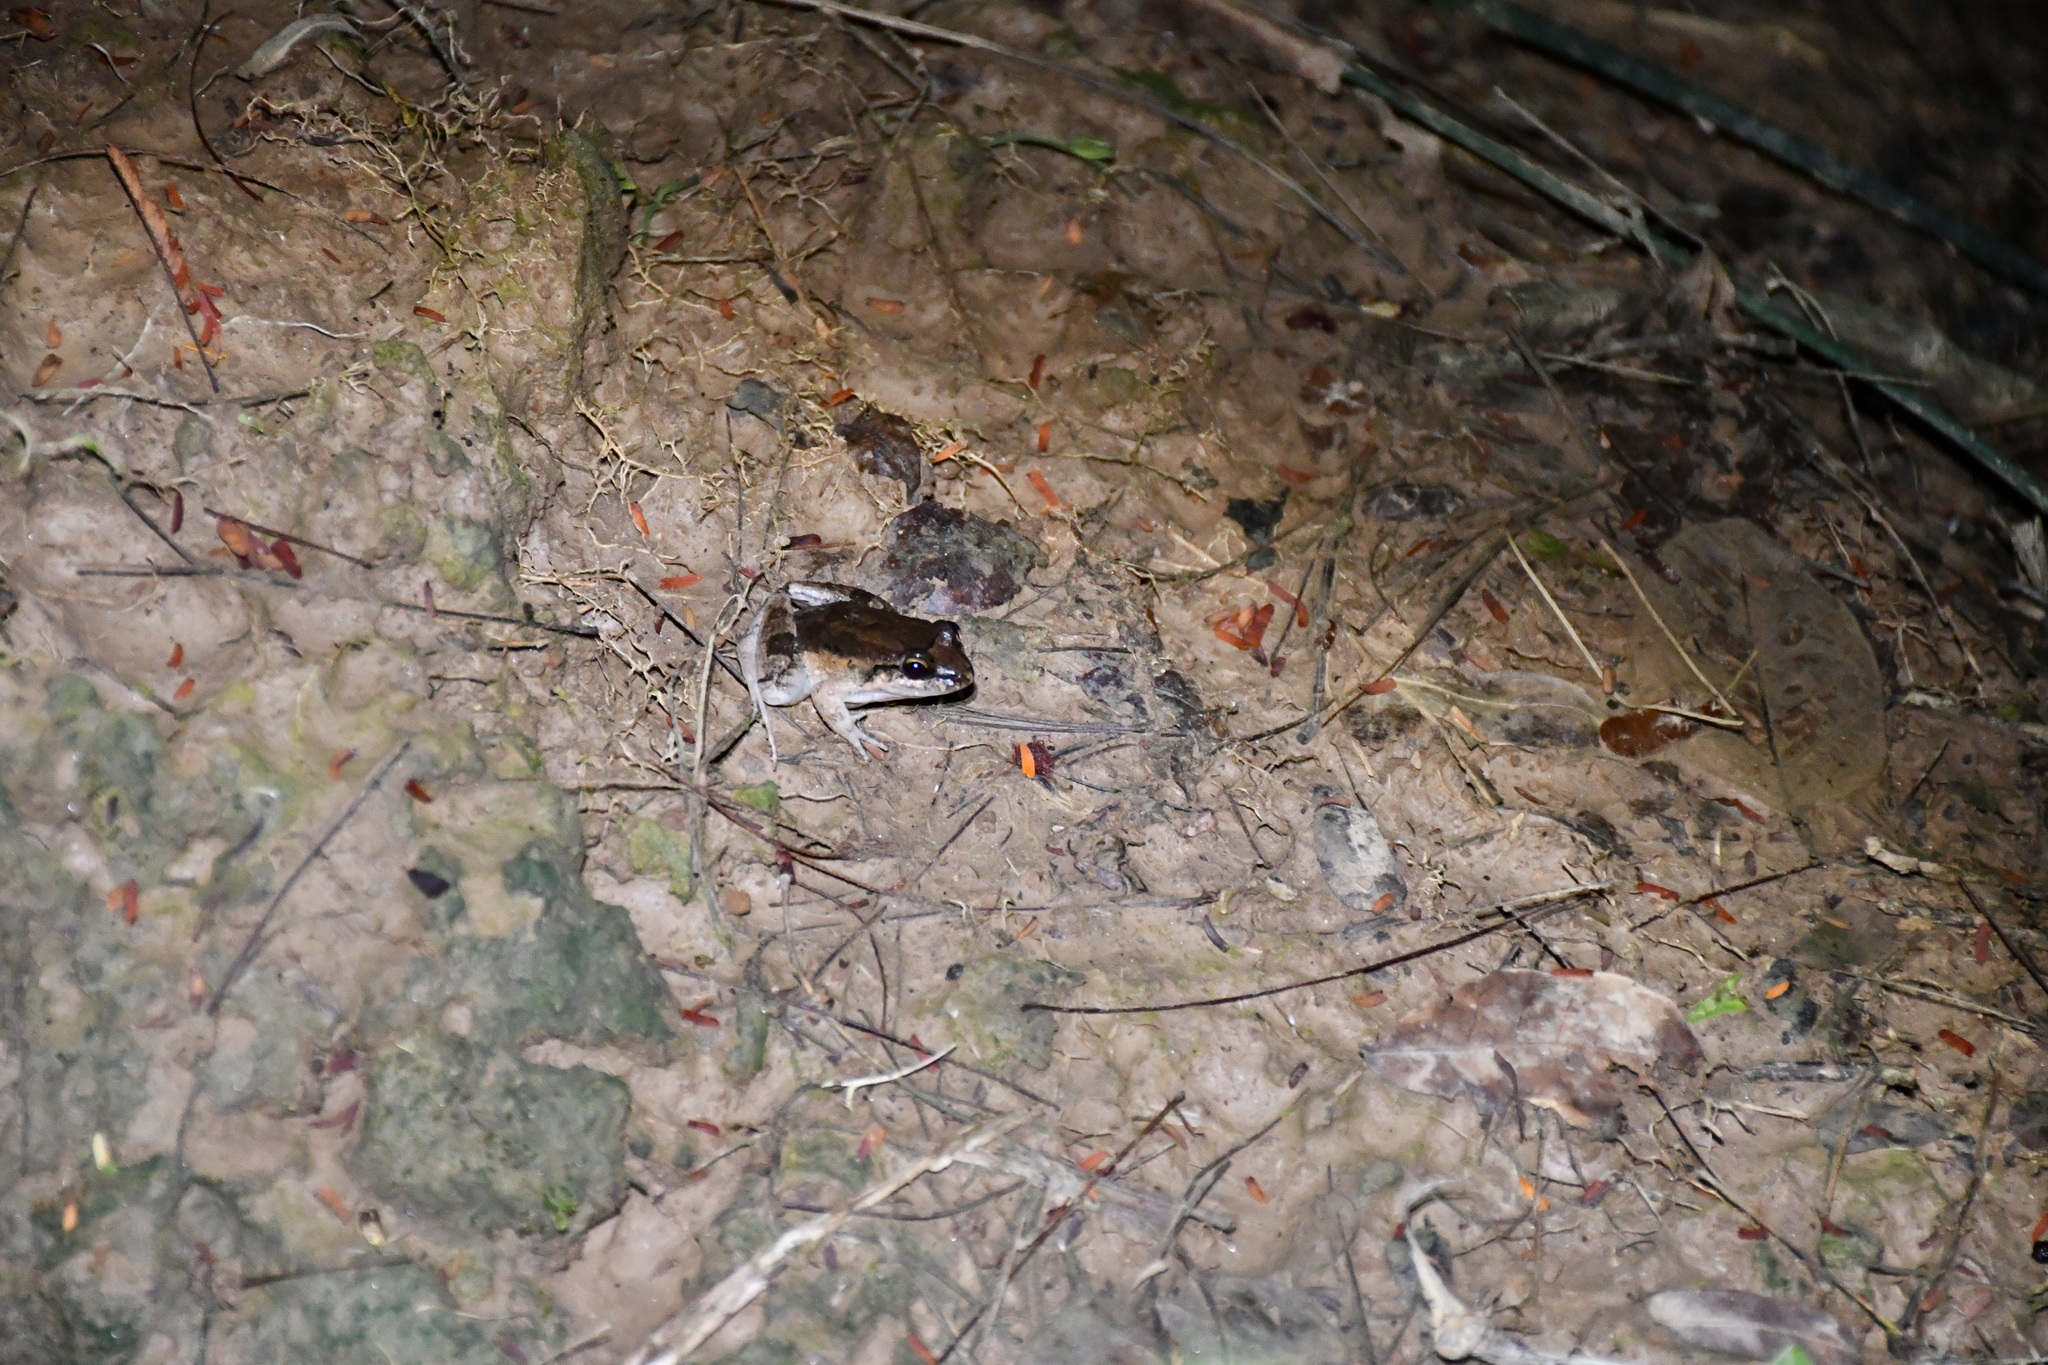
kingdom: Animalia
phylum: Chordata
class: Amphibia
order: Anura
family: Leptodactylidae
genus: Leptodactylus
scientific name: Leptodactylus petersii
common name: Peters' thin-toed frog
